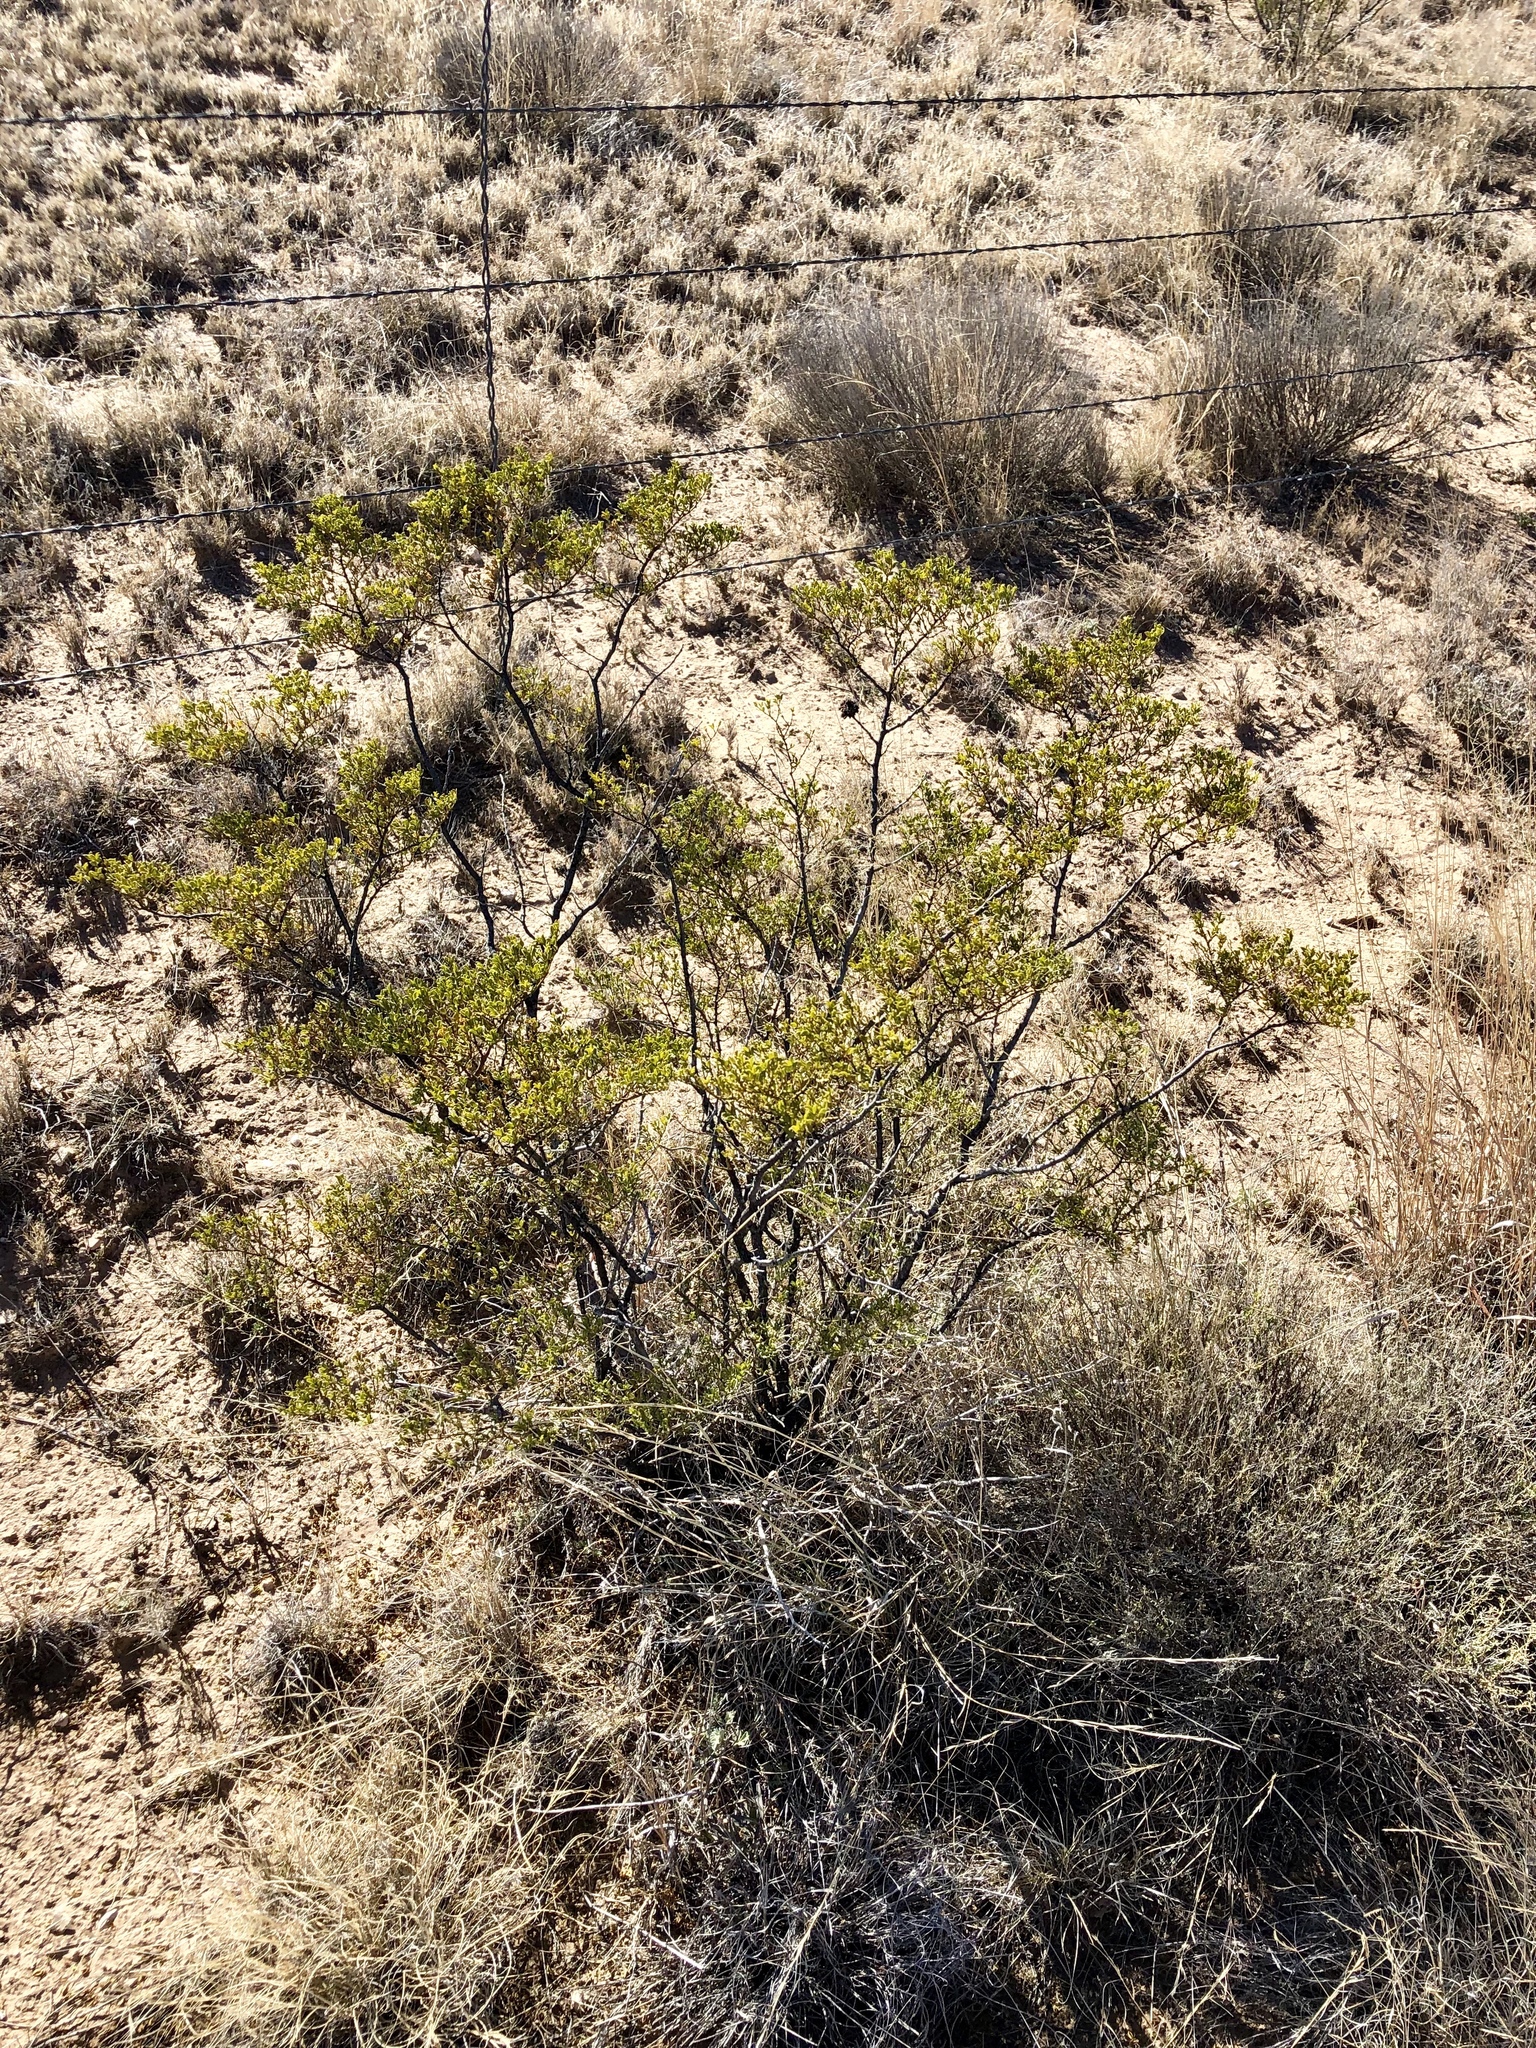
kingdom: Plantae
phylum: Tracheophyta
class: Magnoliopsida
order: Zygophyllales
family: Zygophyllaceae
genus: Larrea
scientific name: Larrea tridentata
